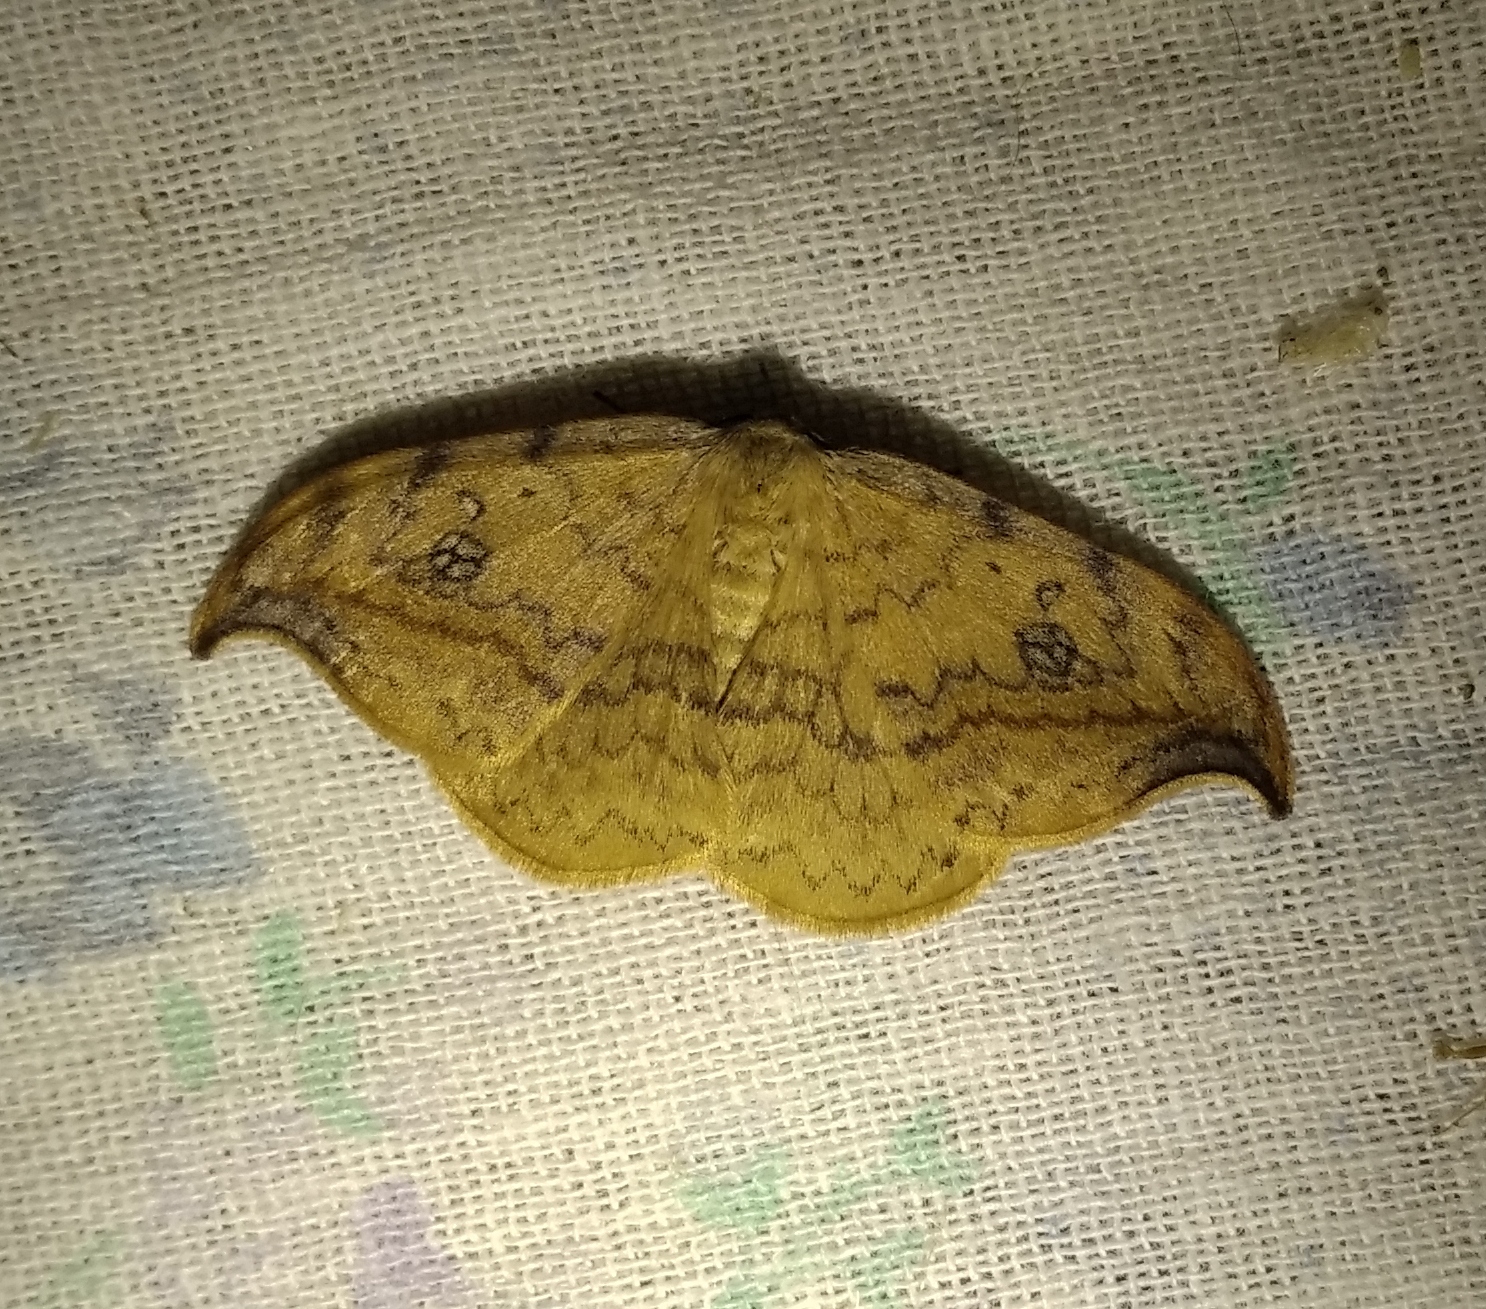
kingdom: Animalia
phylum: Arthropoda
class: Insecta
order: Lepidoptera
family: Drepanidae
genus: Drepana
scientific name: Drepana falcataria
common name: Pebble hook-tip
